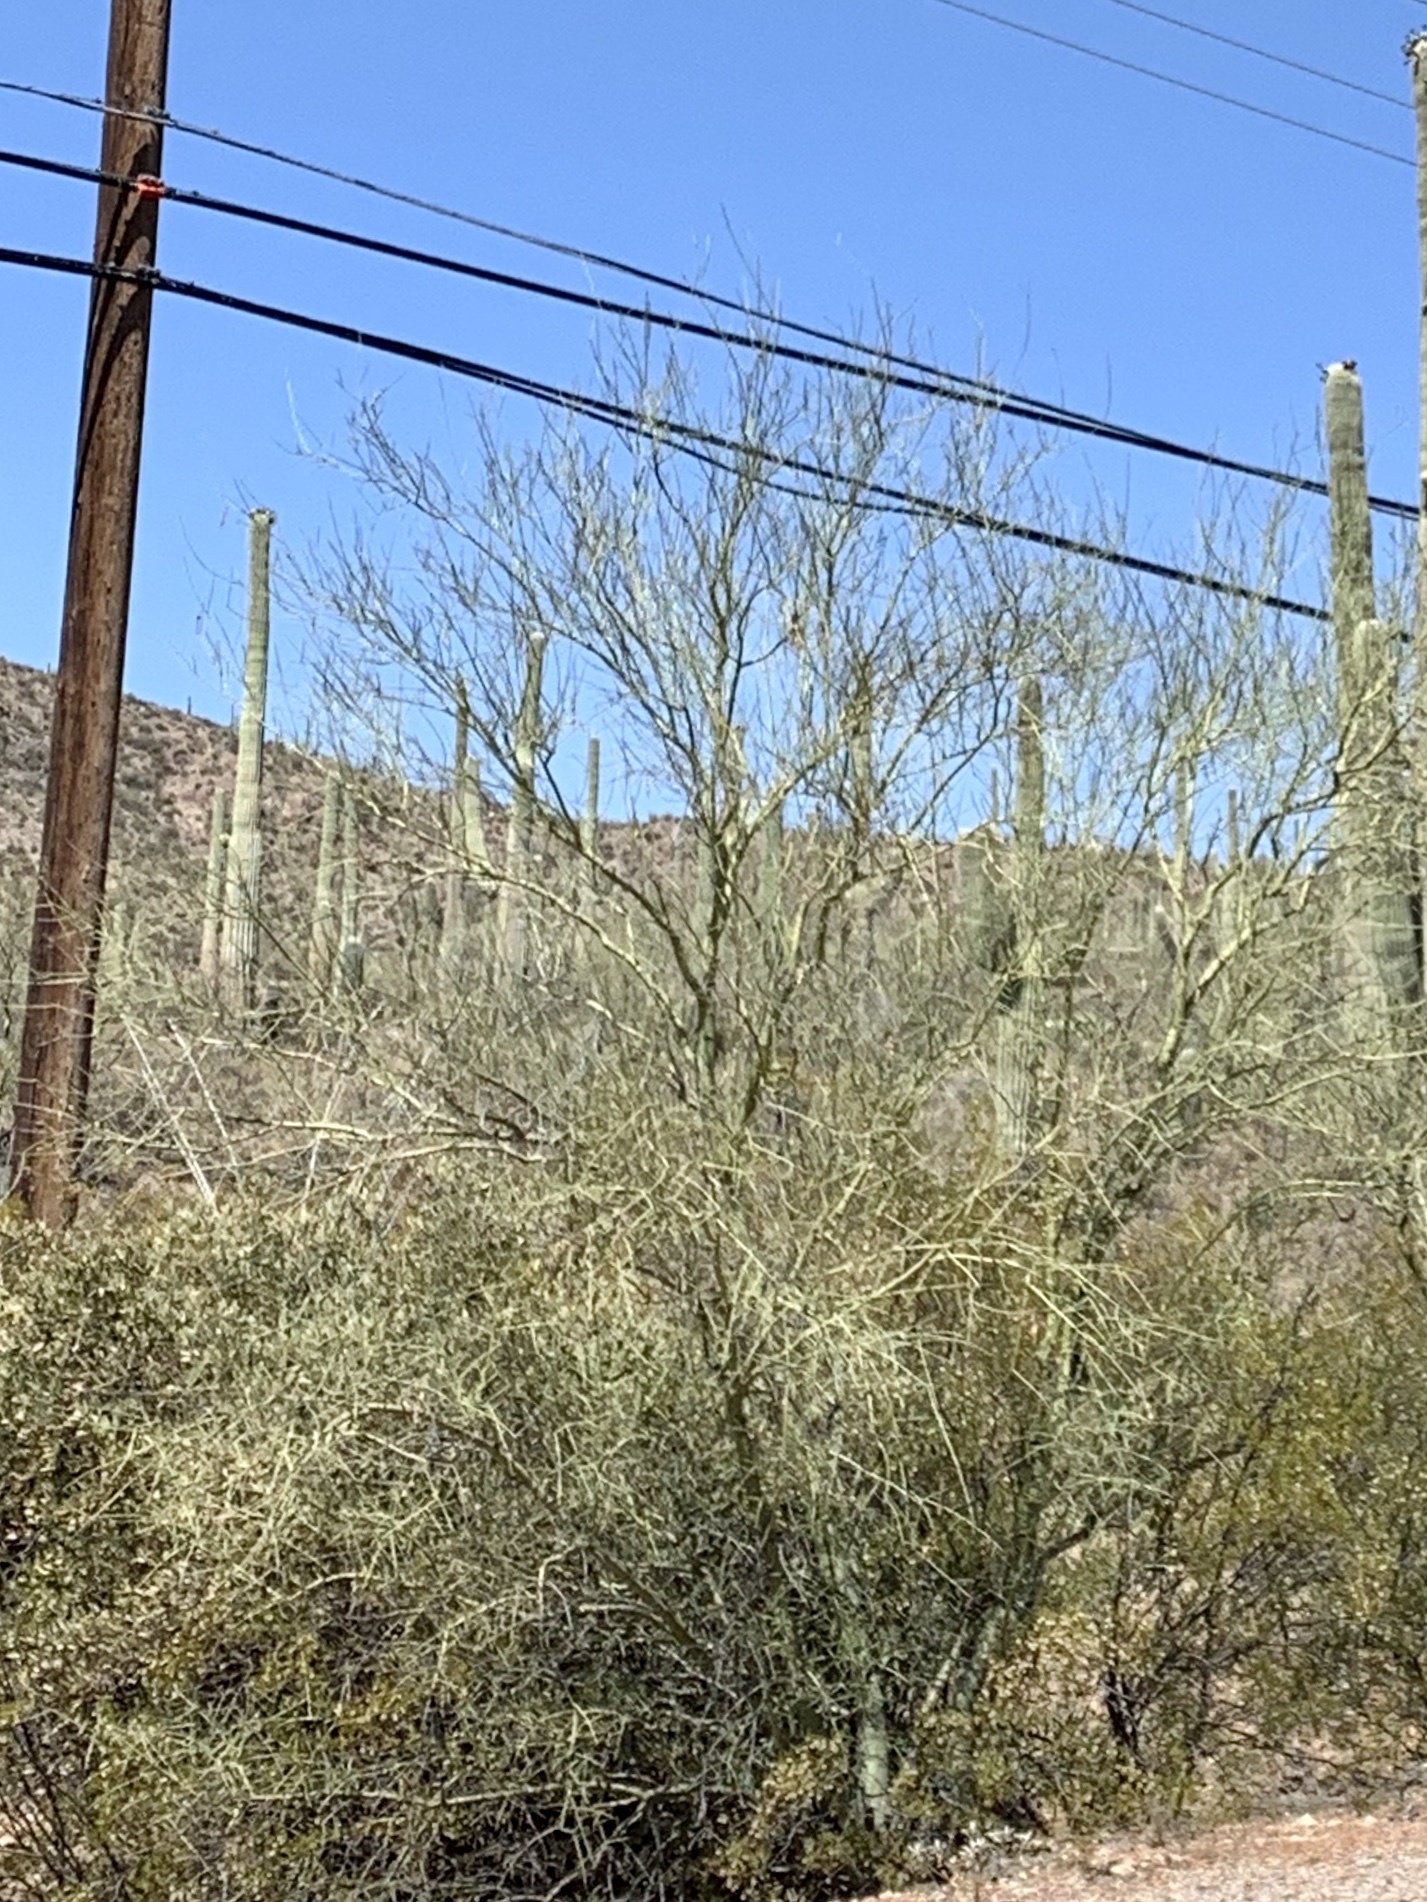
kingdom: Plantae
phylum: Tracheophyta
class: Magnoliopsida
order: Fabales
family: Fabaceae
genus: Parkinsonia
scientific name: Parkinsonia microphylla
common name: Yellow paloverde
